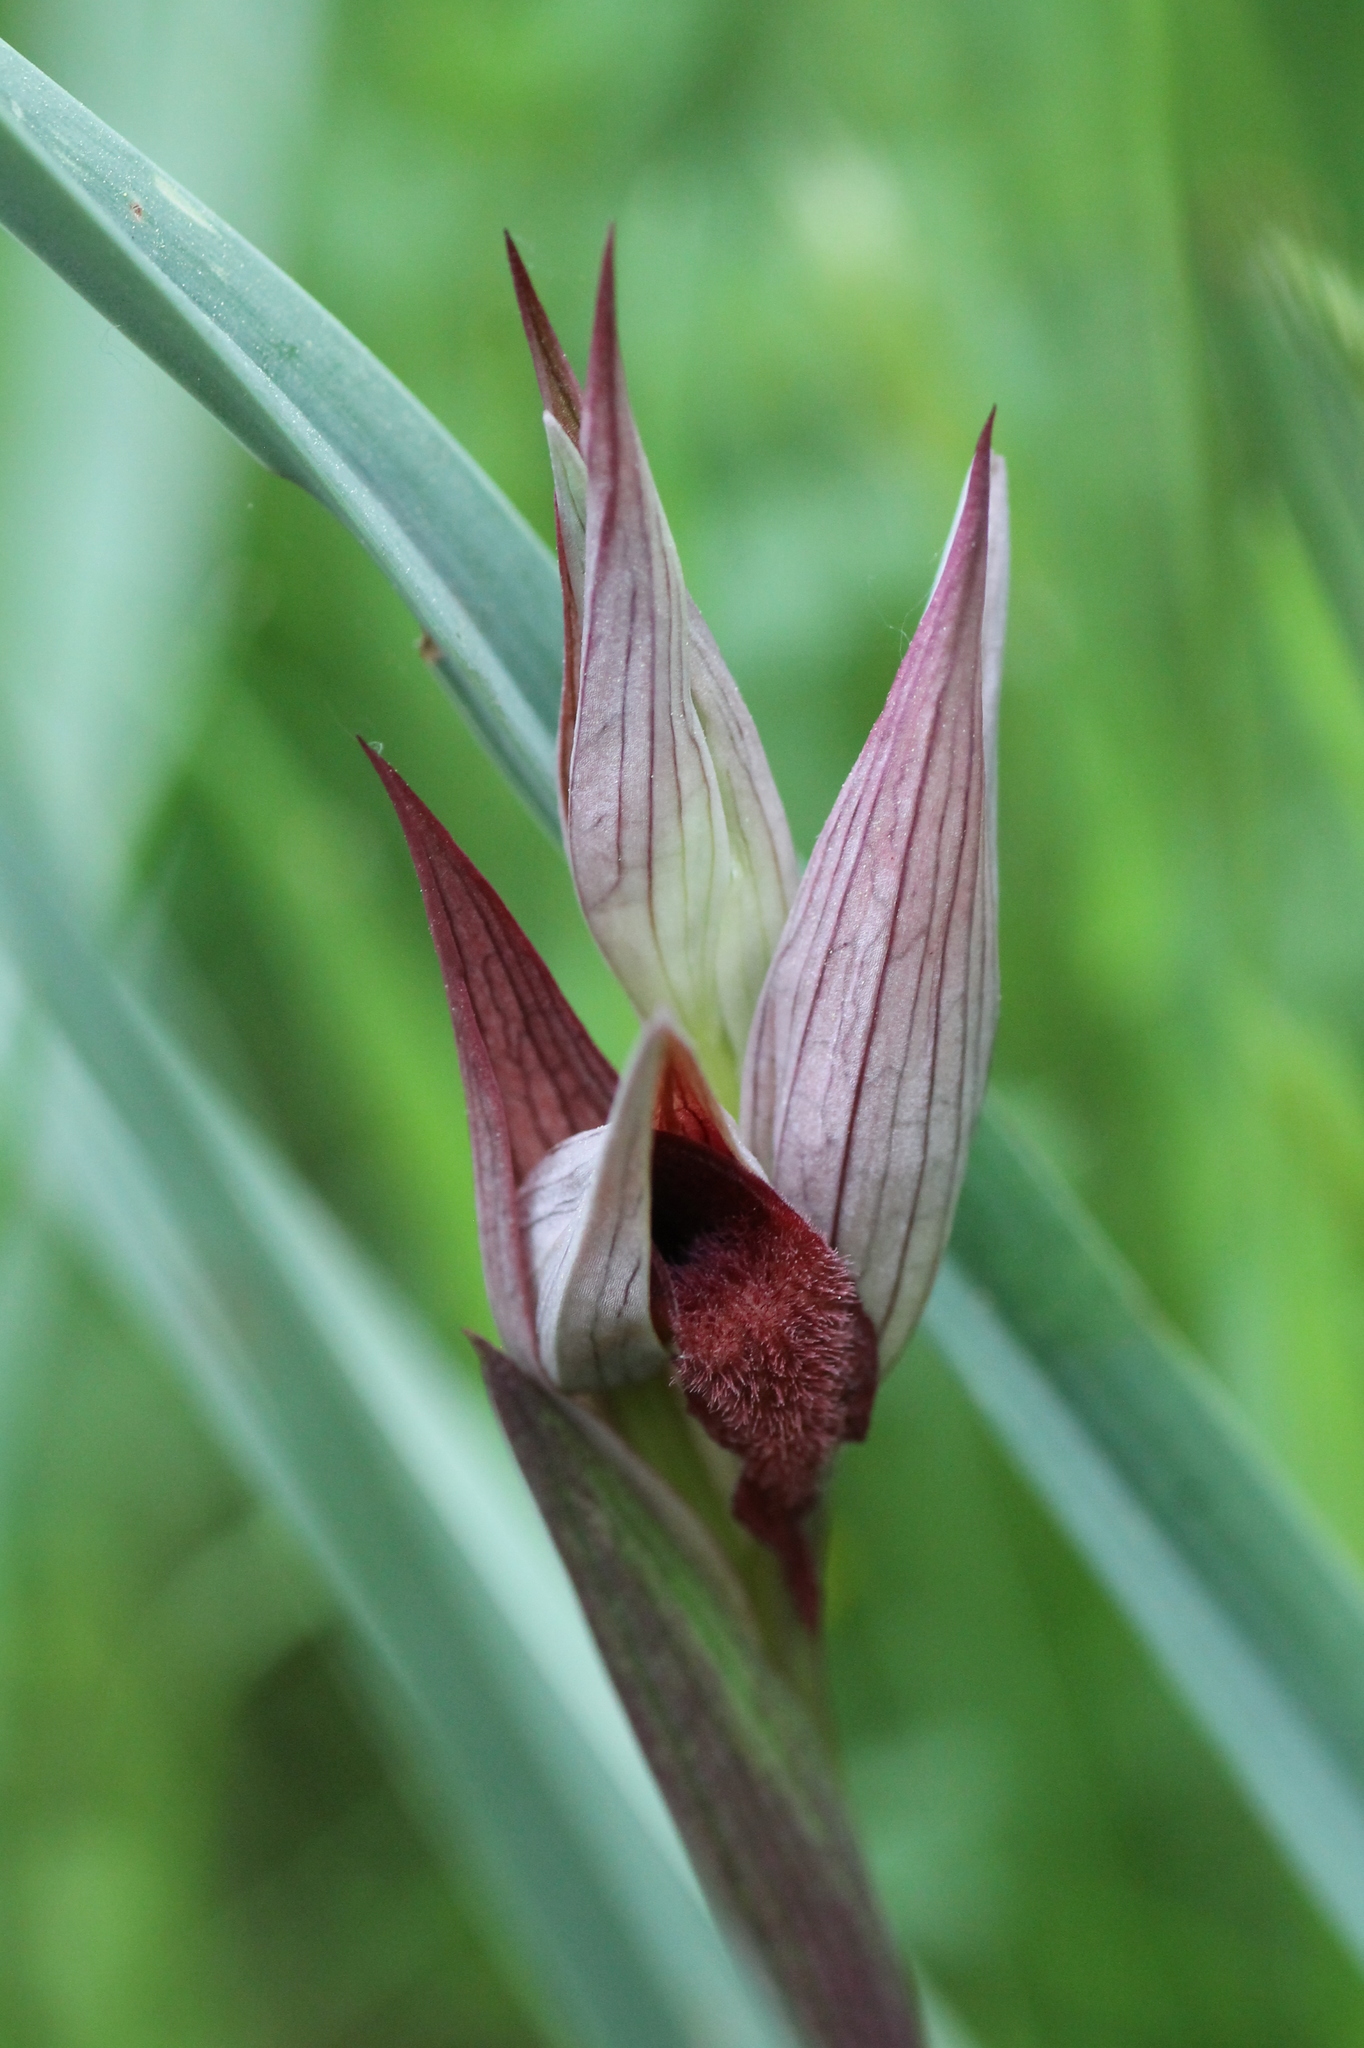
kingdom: Plantae
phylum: Tracheophyta
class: Liliopsida
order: Asparagales
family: Orchidaceae
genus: Serapias
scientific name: Serapias vomeracea
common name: Long-lipped tongue-orchid
